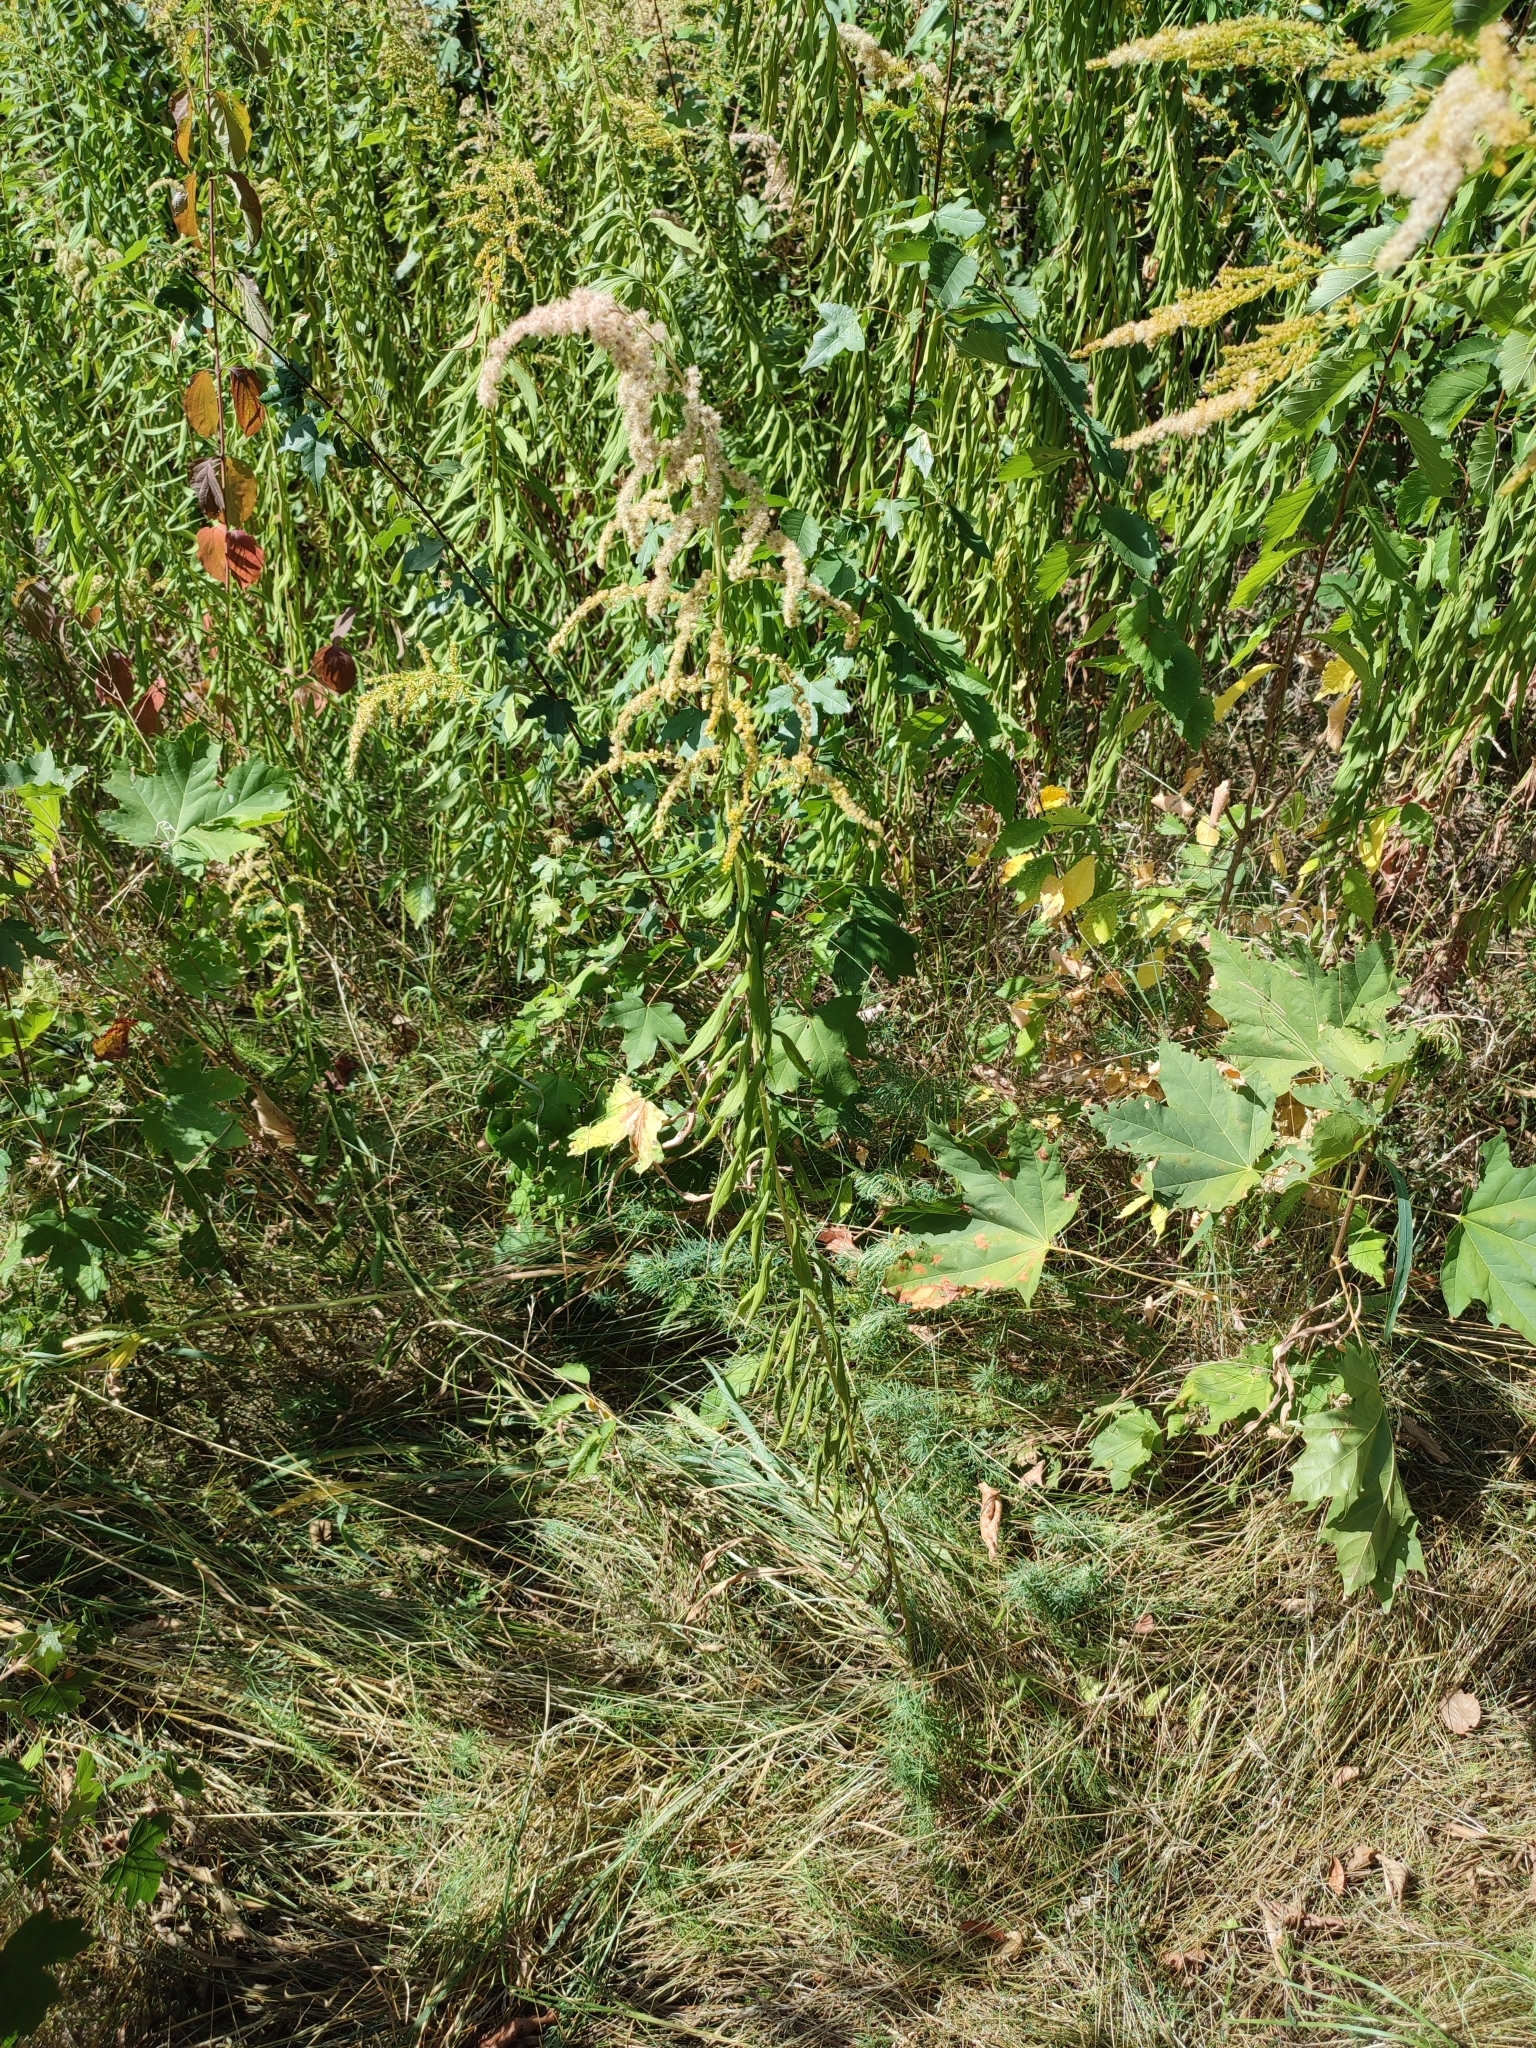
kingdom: Plantae
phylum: Tracheophyta
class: Magnoliopsida
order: Asterales
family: Asteraceae
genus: Solidago
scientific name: Solidago canadensis
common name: Canada goldenrod
